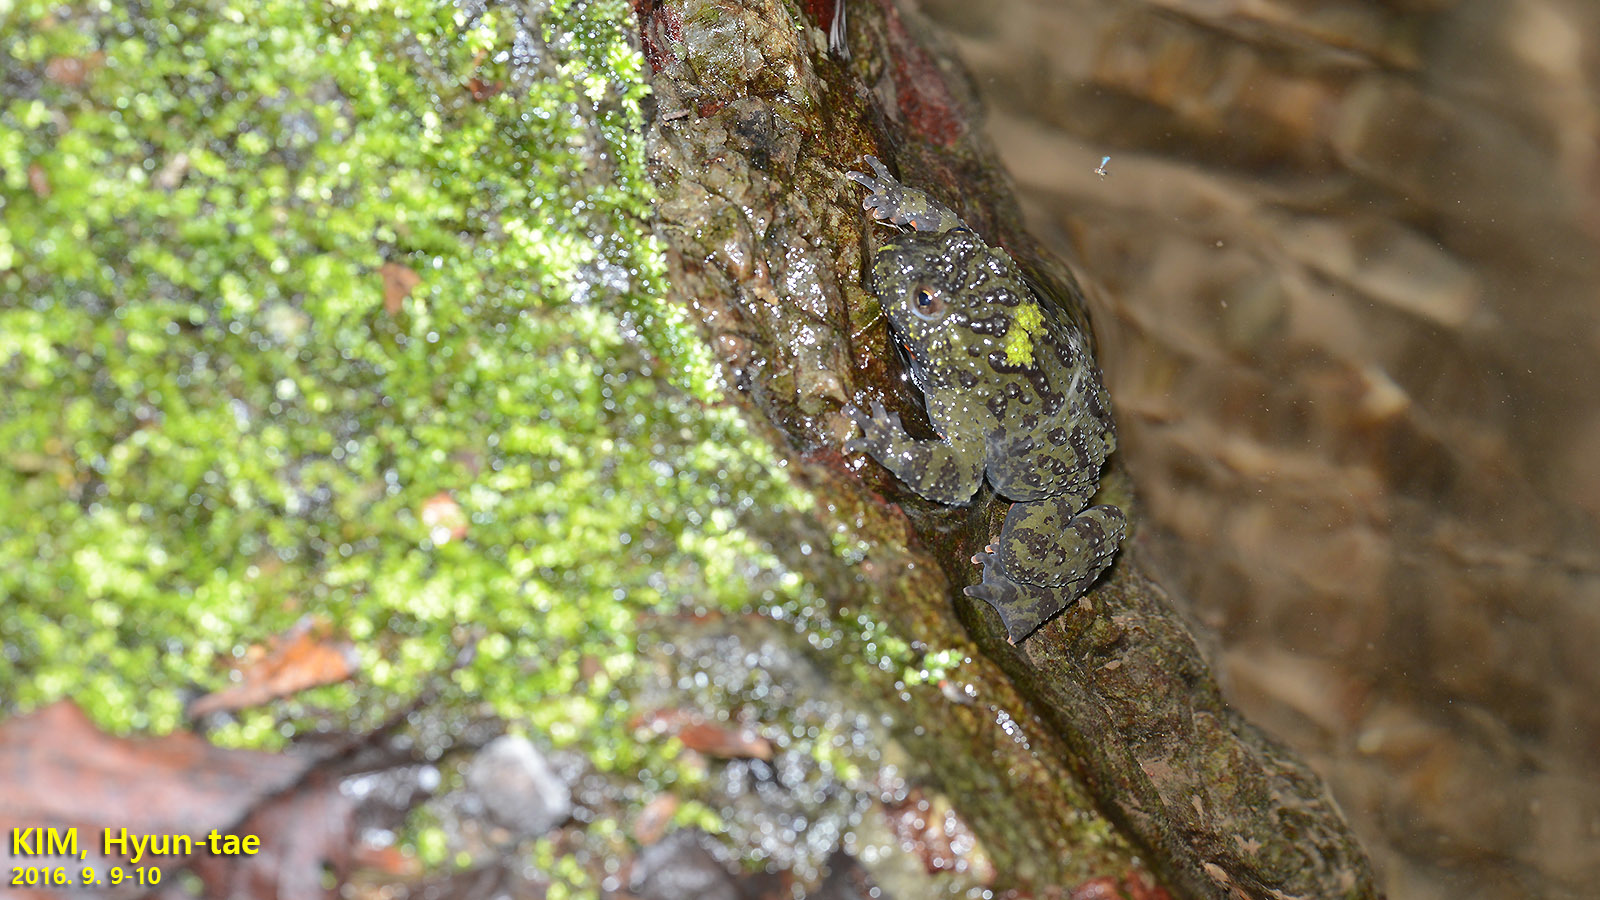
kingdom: Animalia
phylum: Chordata
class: Amphibia
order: Anura
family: Bombinatoridae
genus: Bombina
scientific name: Bombina orientalis
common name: Oriental firebelly toad
